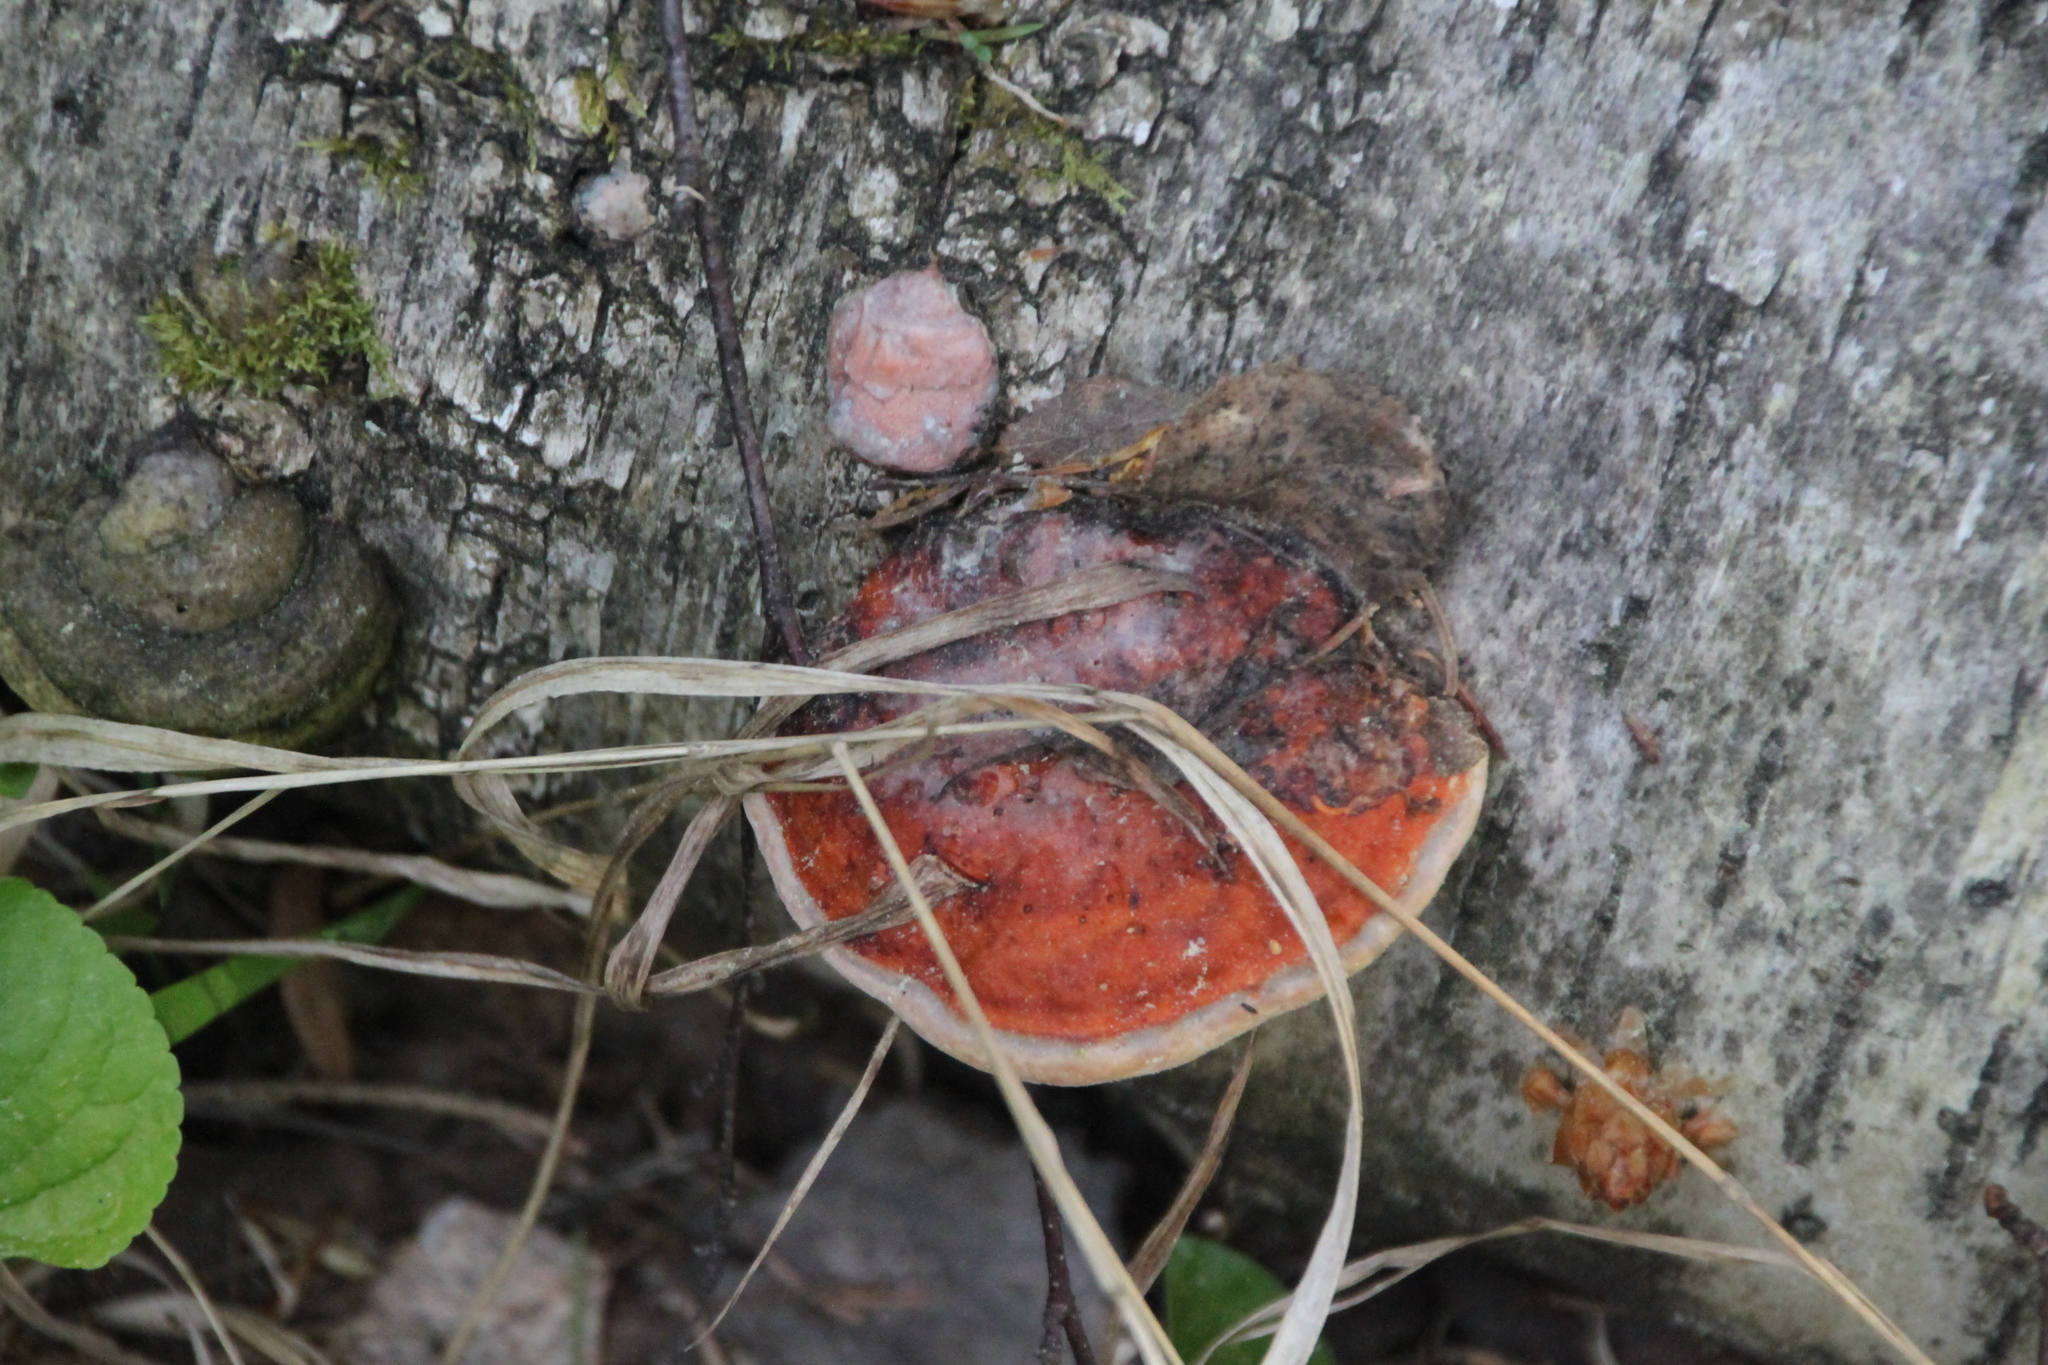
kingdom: Fungi
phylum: Basidiomycota
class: Agaricomycetes
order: Polyporales
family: Fomitopsidaceae
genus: Fomitopsis
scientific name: Fomitopsis pinicola
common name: Red-belted bracket
